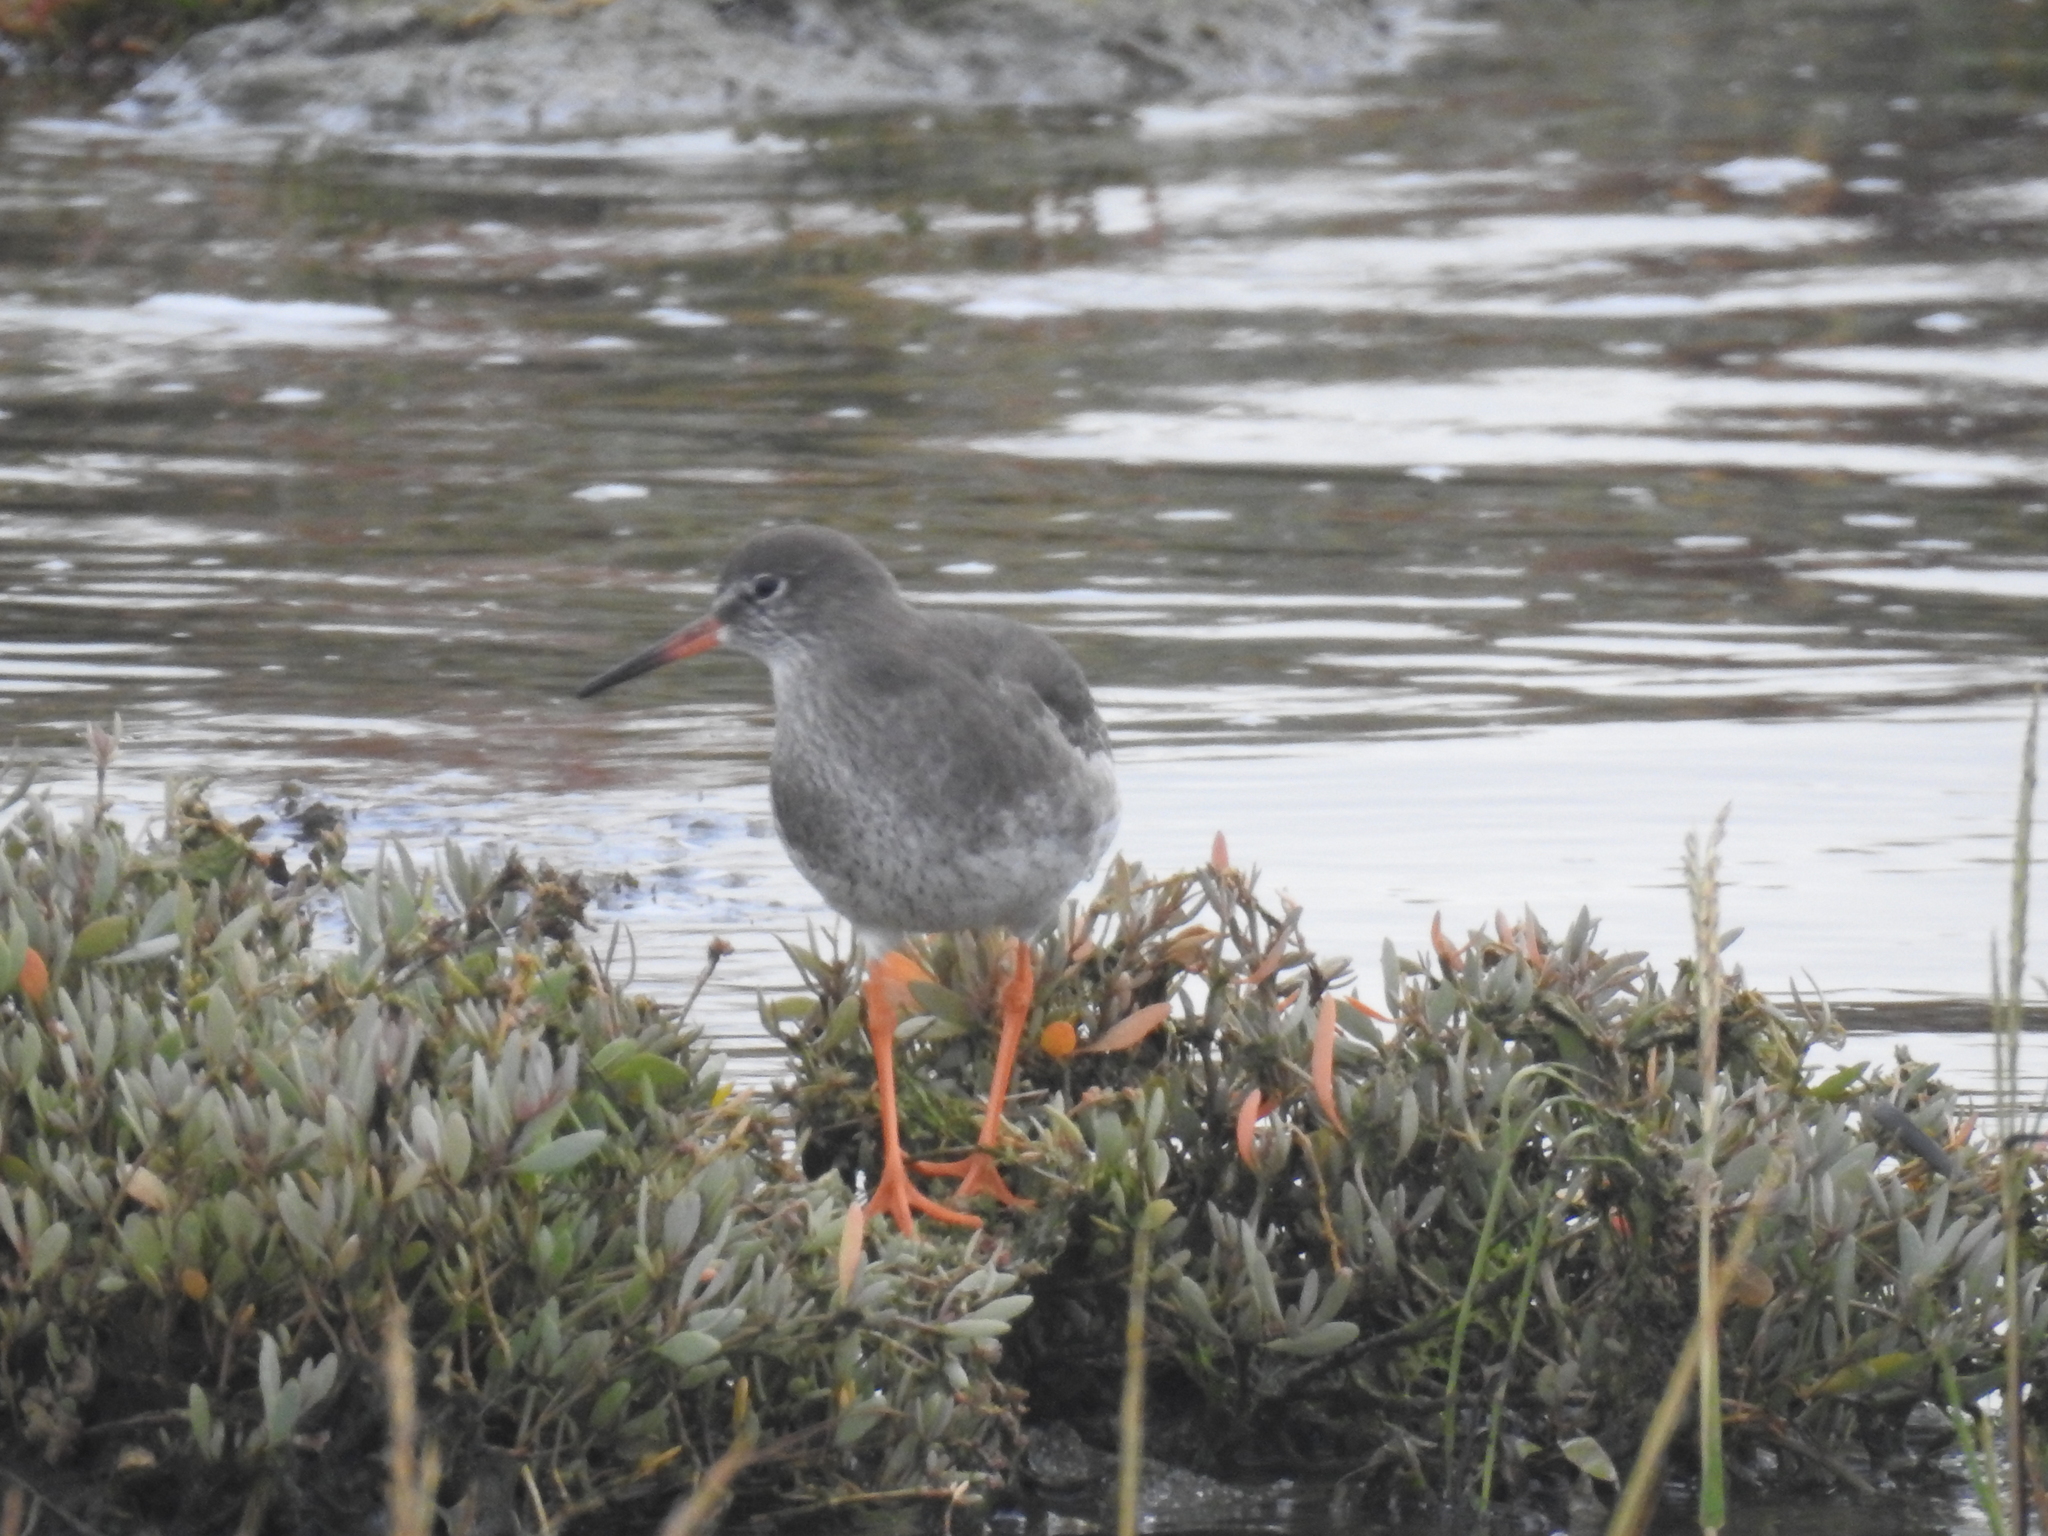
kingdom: Animalia
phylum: Chordata
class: Aves
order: Charadriiformes
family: Scolopacidae
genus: Tringa
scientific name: Tringa totanus
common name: Common redshank
